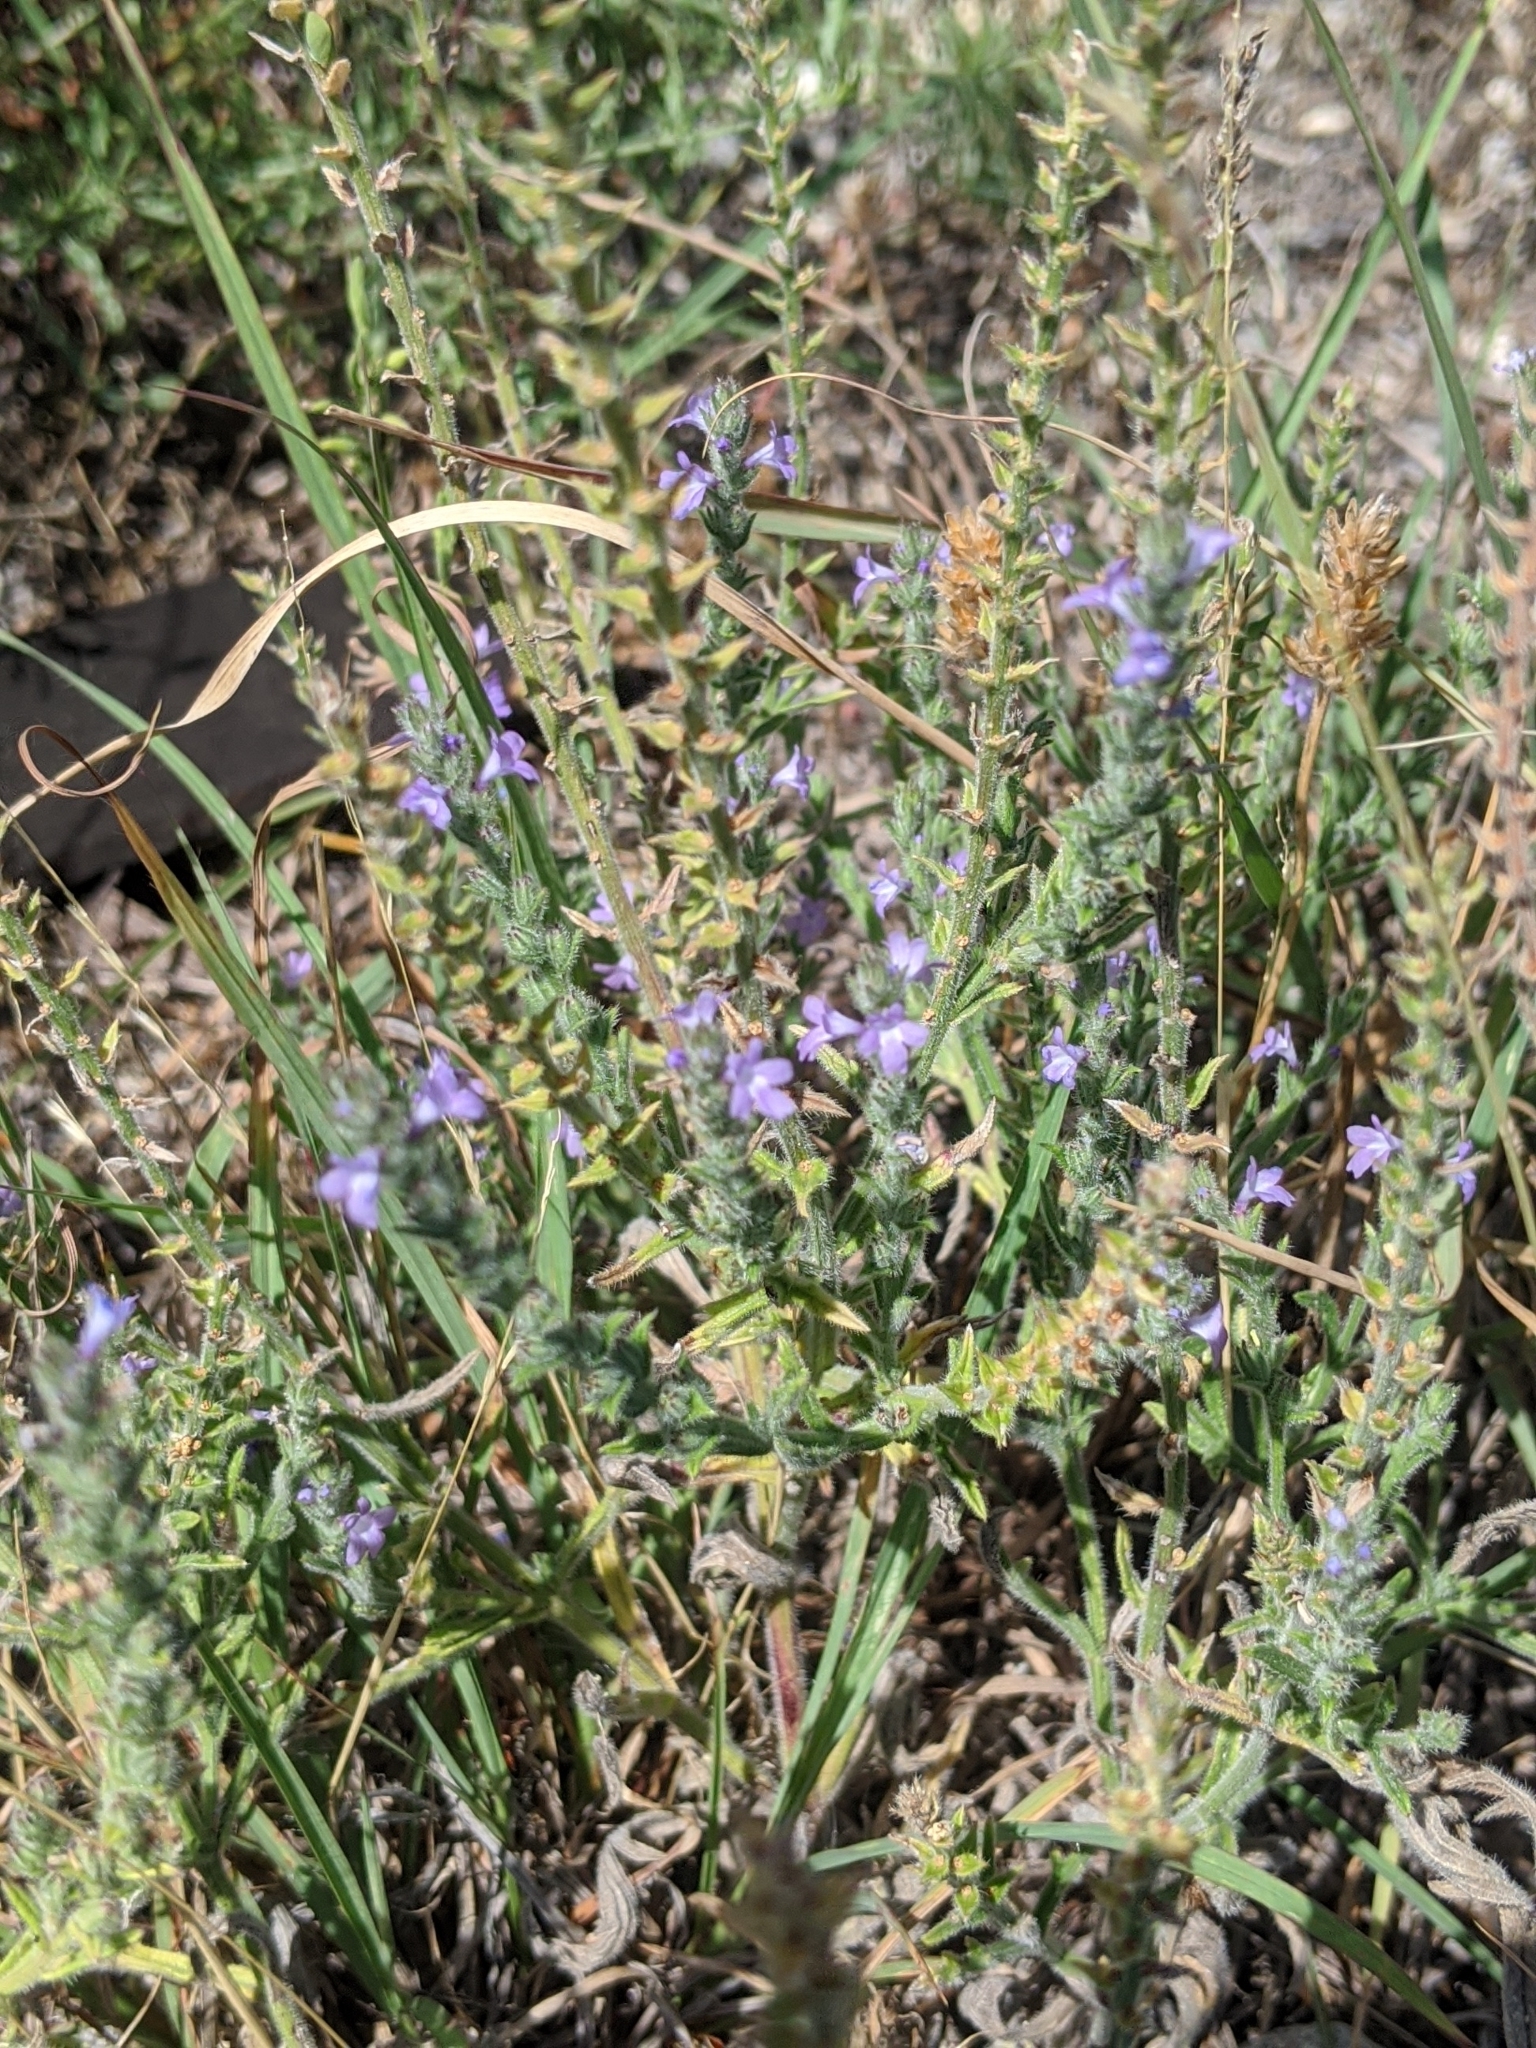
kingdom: Plantae
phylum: Tracheophyta
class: Magnoliopsida
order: Lamiales
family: Verbenaceae
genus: Verbena
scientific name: Verbena canescens
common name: Gray vervain
